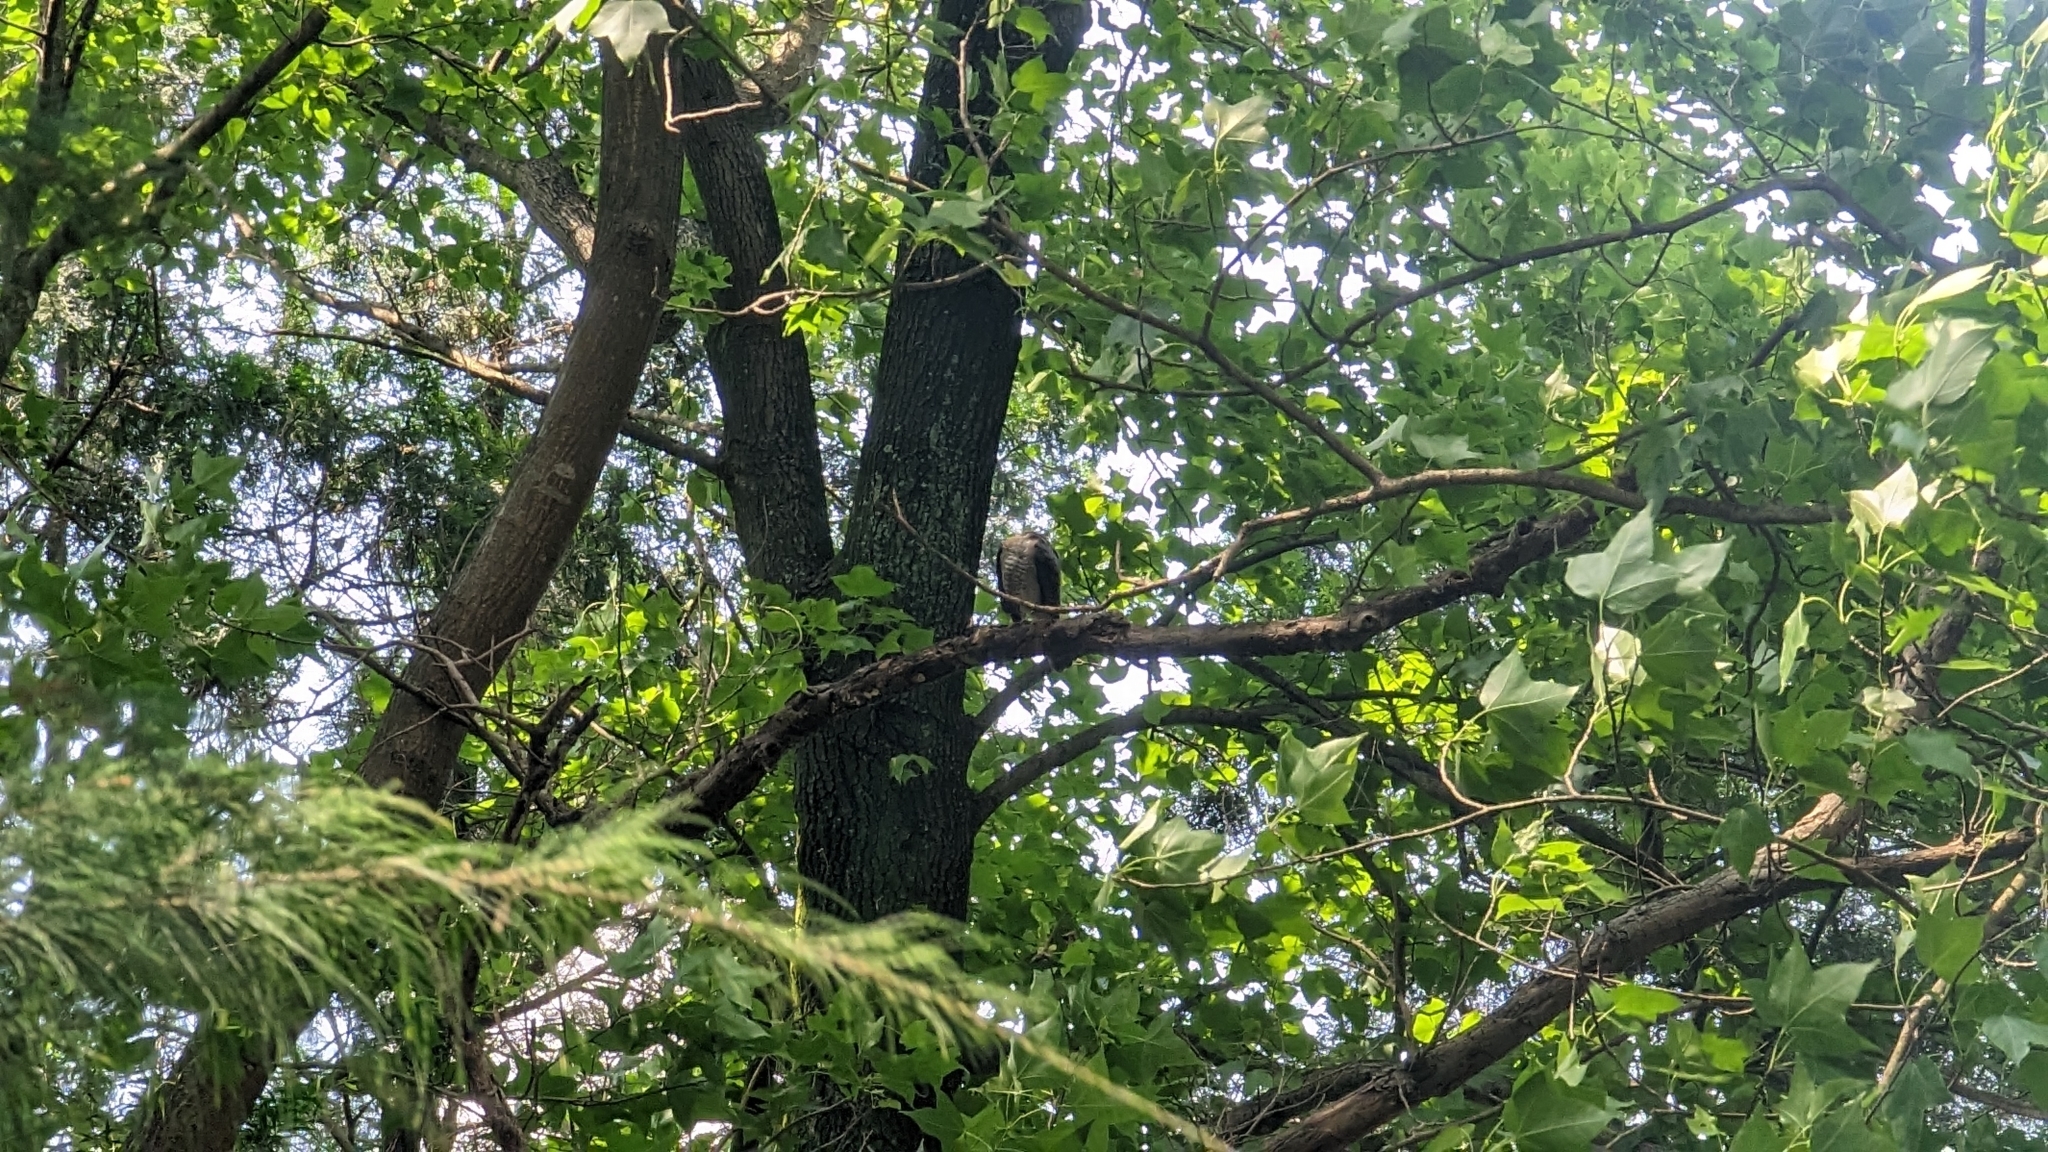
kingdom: Animalia
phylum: Chordata
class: Aves
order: Accipitriformes
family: Accipitridae
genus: Accipiter
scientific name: Accipiter trivirgatus
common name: Crested goshawk
